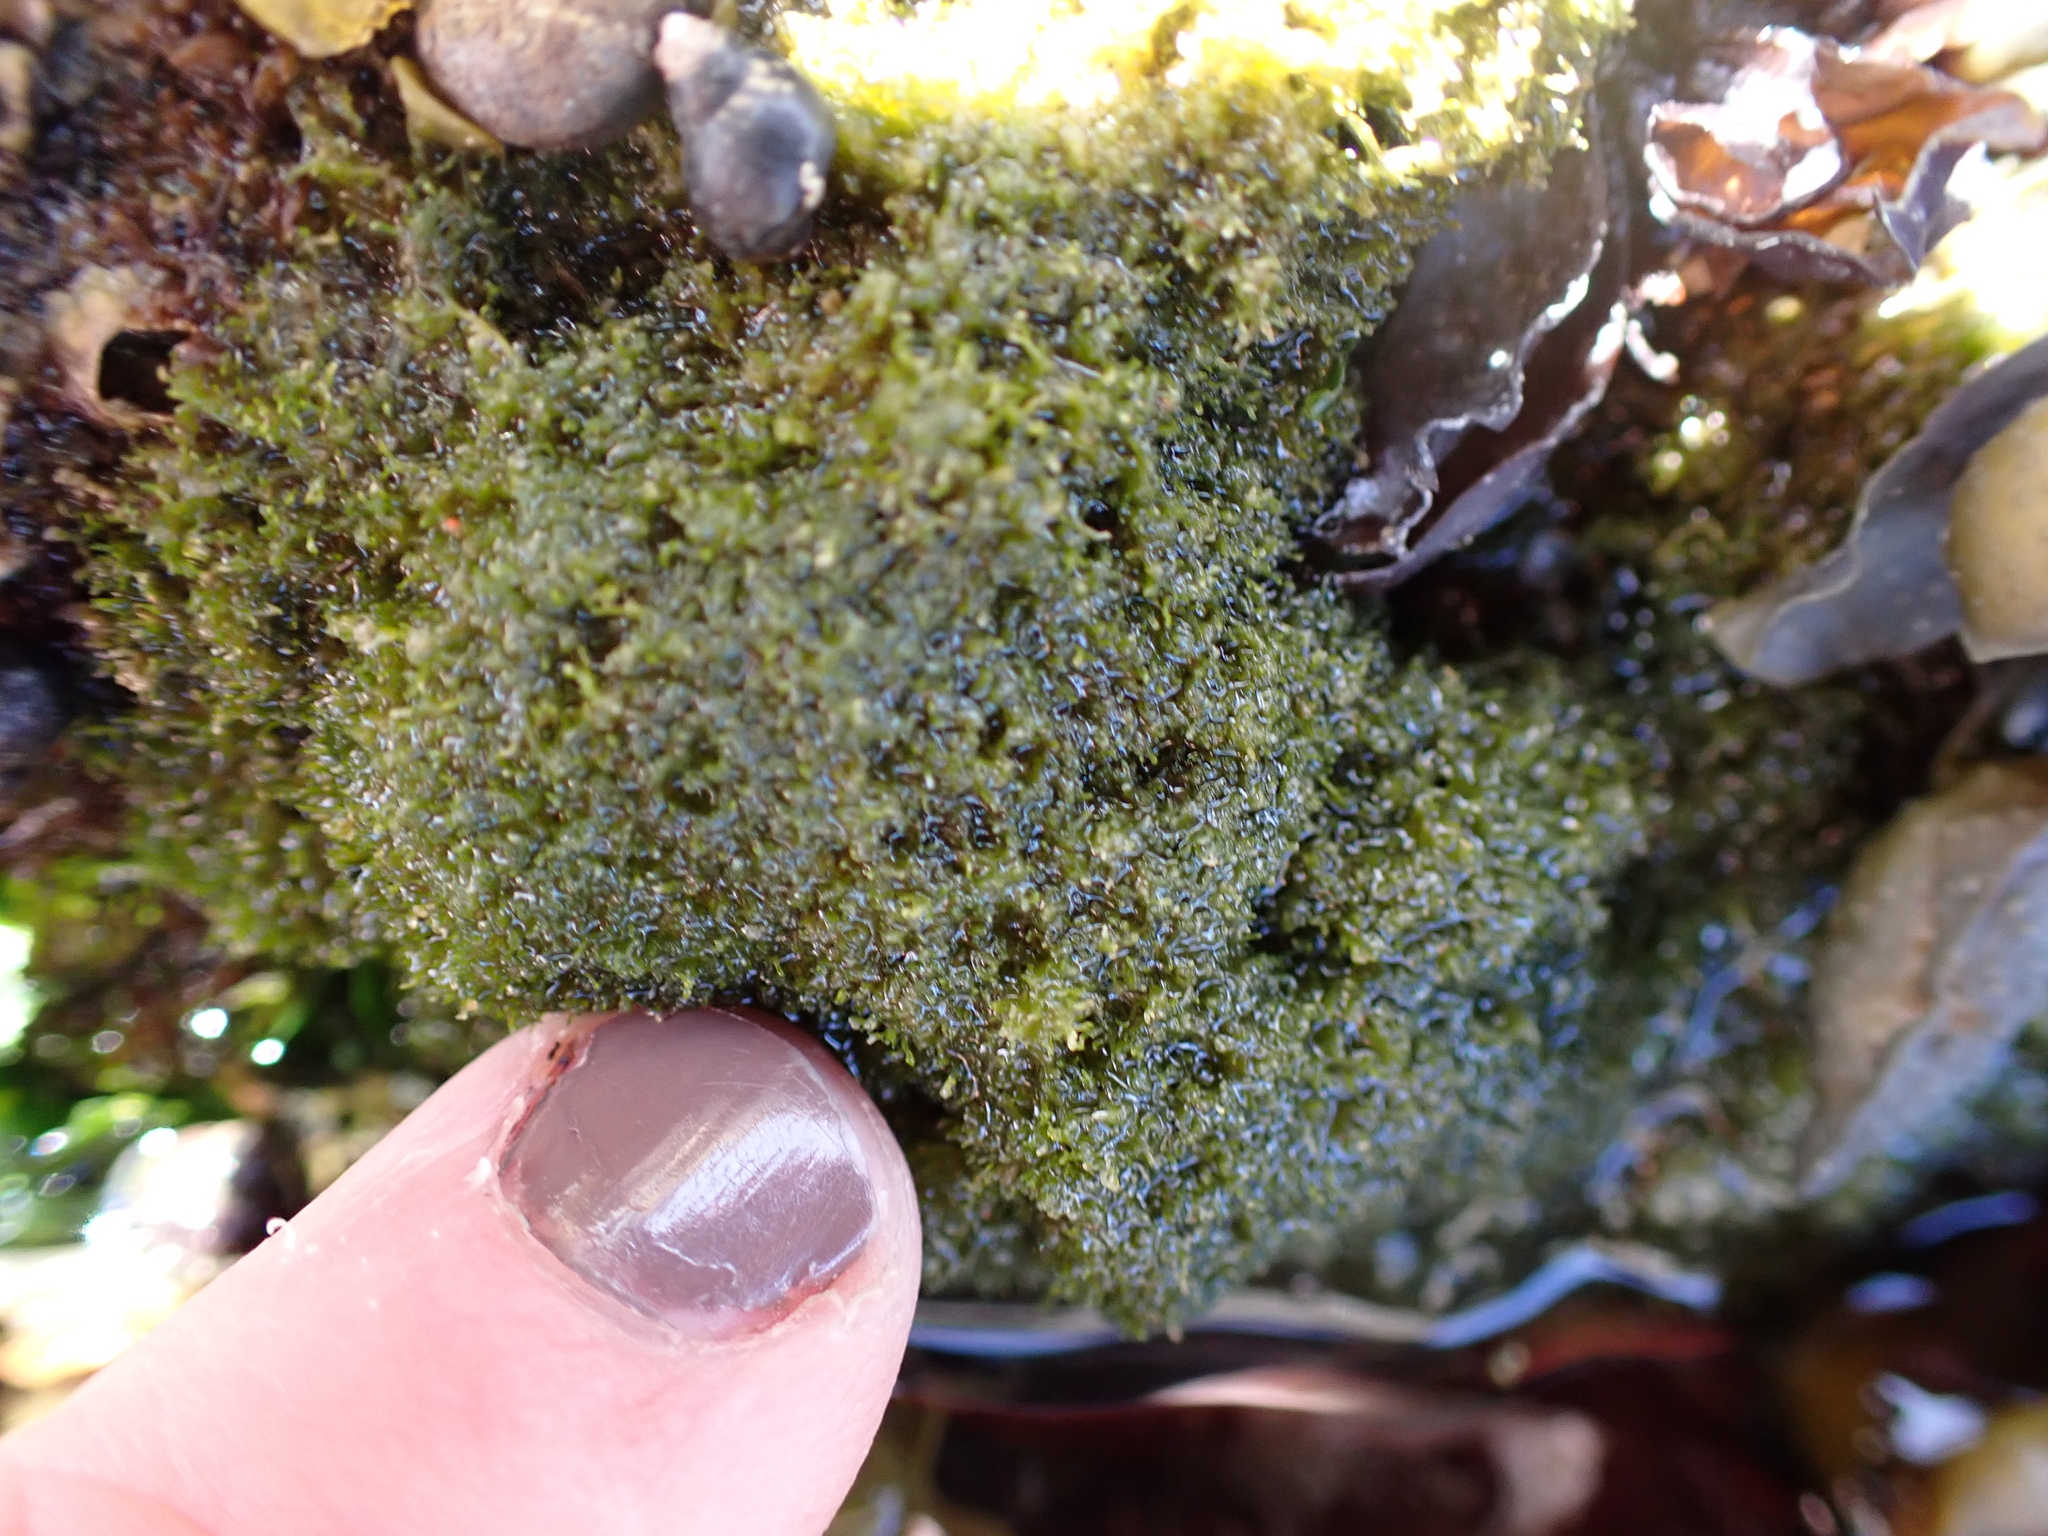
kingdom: Plantae
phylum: Chlorophyta
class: Ulvophyceae
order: Cladophorales
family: Cladophoraceae
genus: Cladophora
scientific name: Cladophora columbiana
